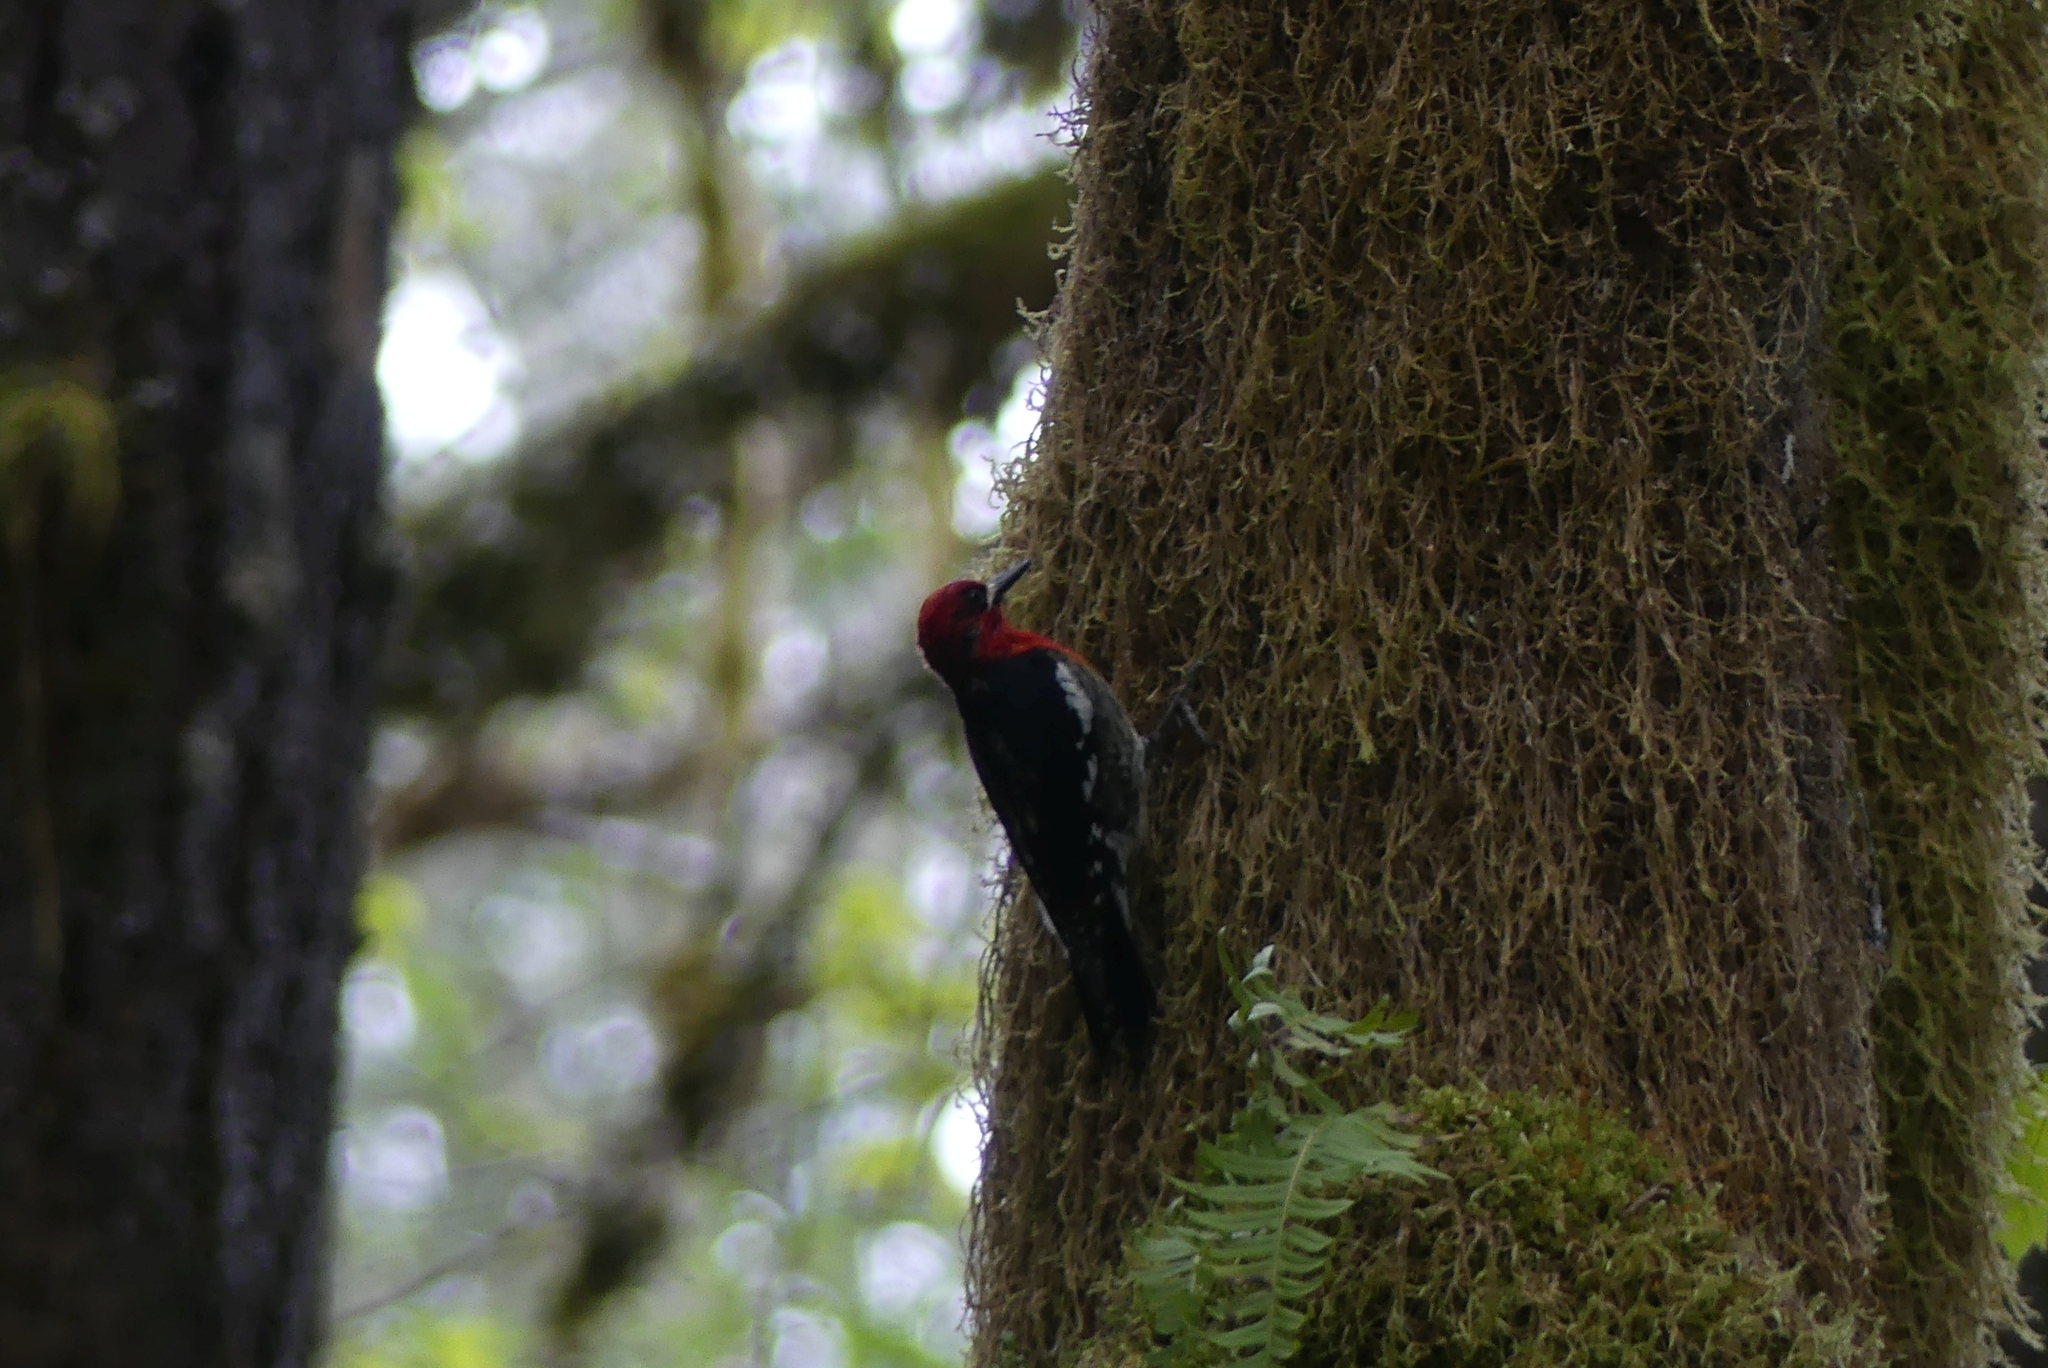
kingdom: Animalia
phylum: Chordata
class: Aves
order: Piciformes
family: Picidae
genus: Sphyrapicus
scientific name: Sphyrapicus ruber
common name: Red-breasted sapsucker
